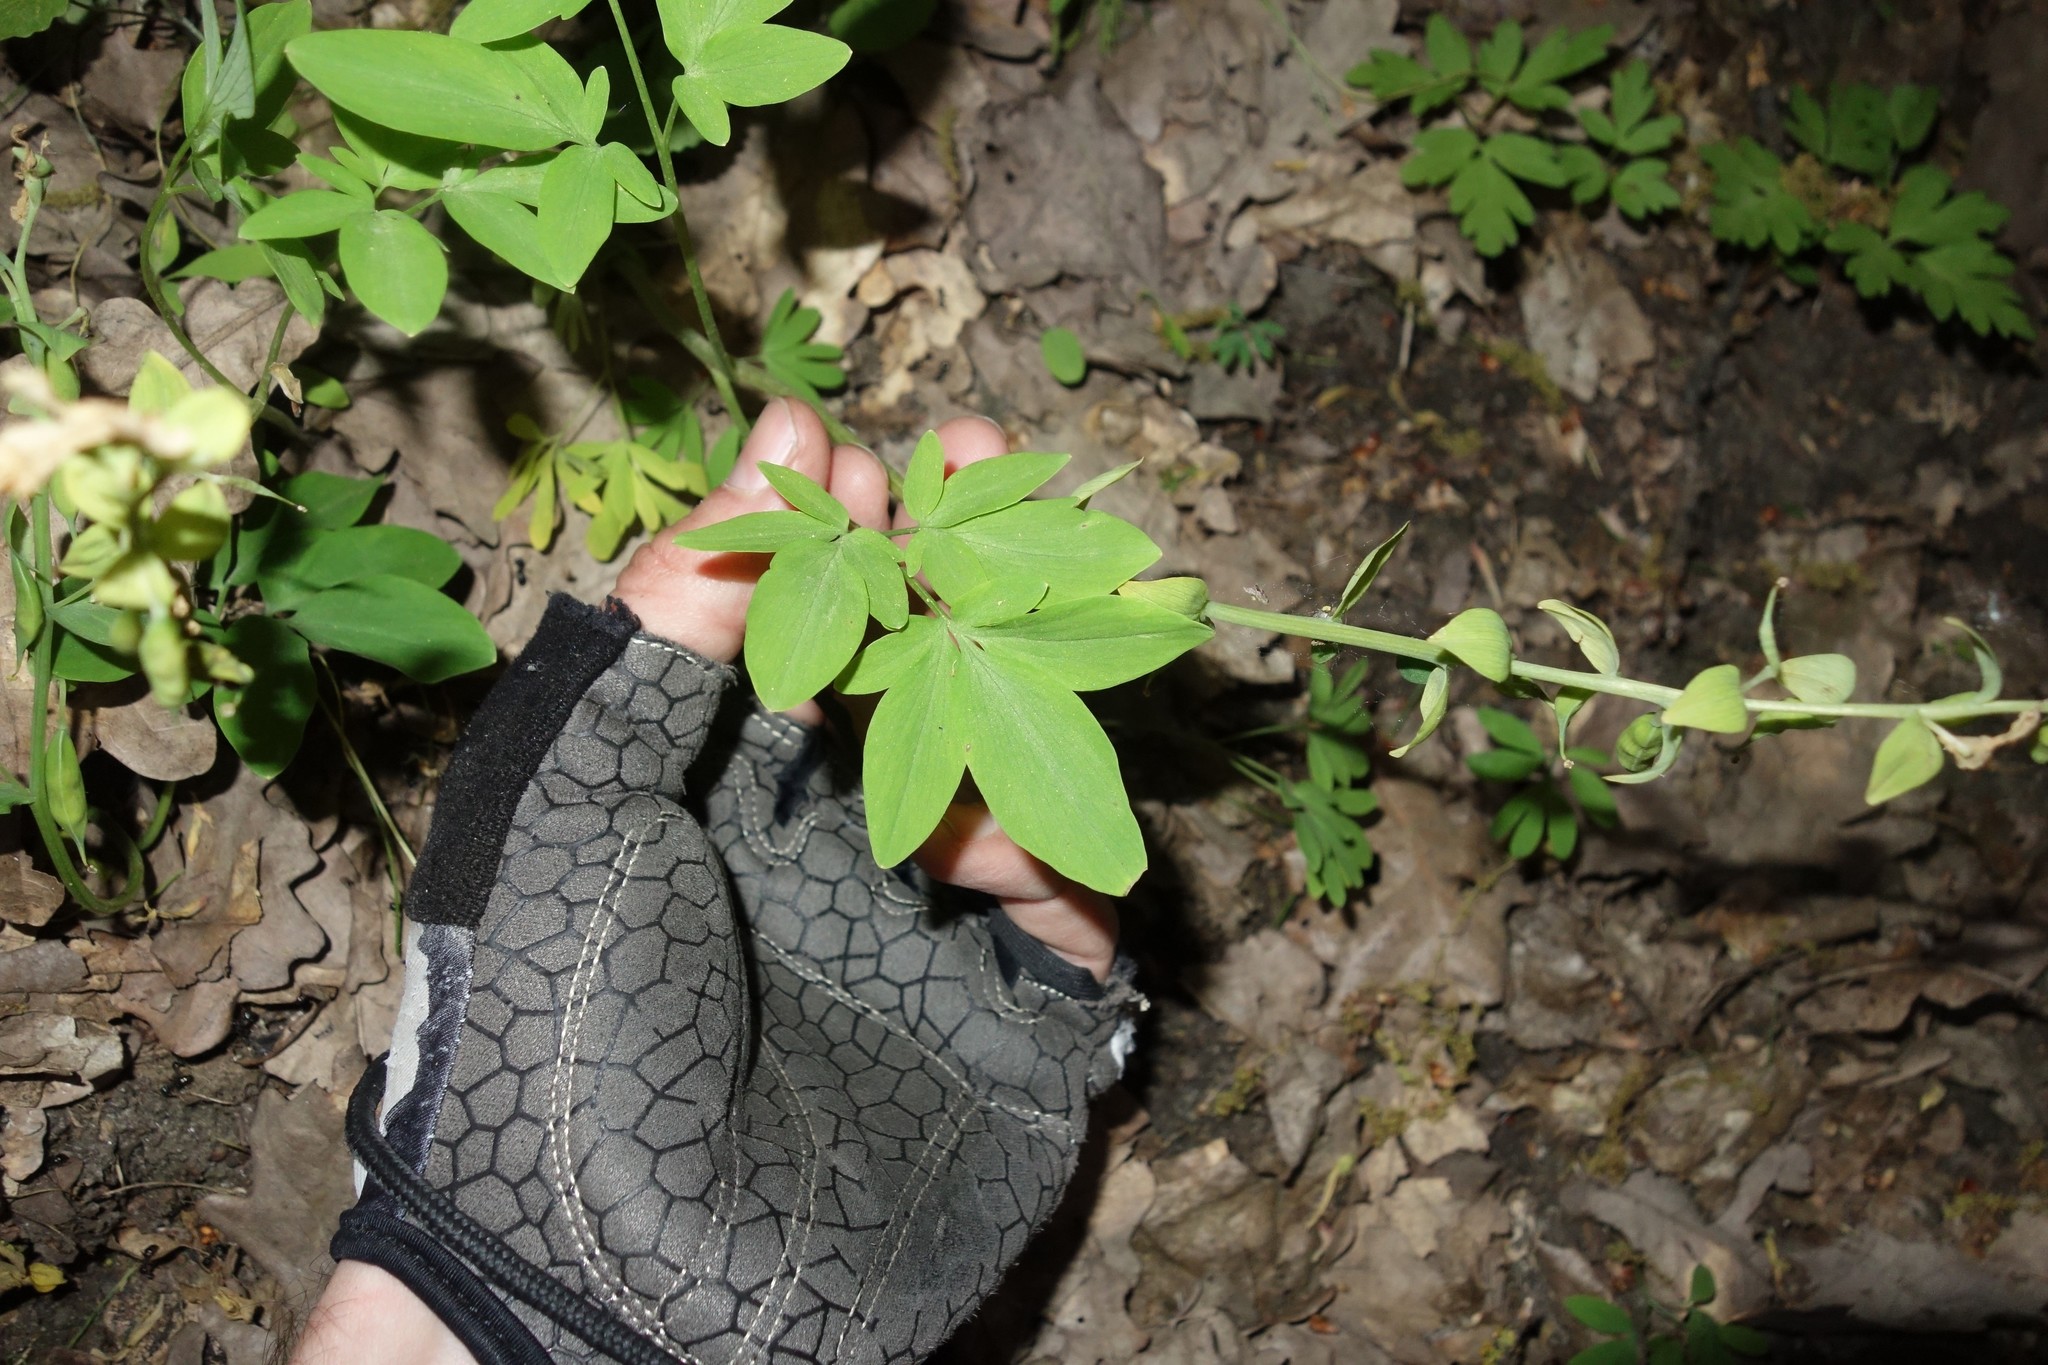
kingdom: Plantae
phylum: Tracheophyta
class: Magnoliopsida
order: Ranunculales
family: Papaveraceae
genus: Corydalis
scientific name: Corydalis cava
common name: Hollowroot
